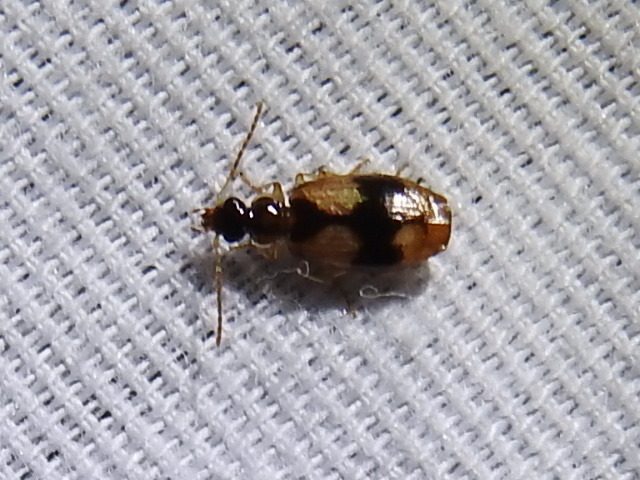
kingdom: Animalia
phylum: Arthropoda
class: Insecta
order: Coleoptera
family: Carabidae
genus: Lebia
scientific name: Lebia fuscata
